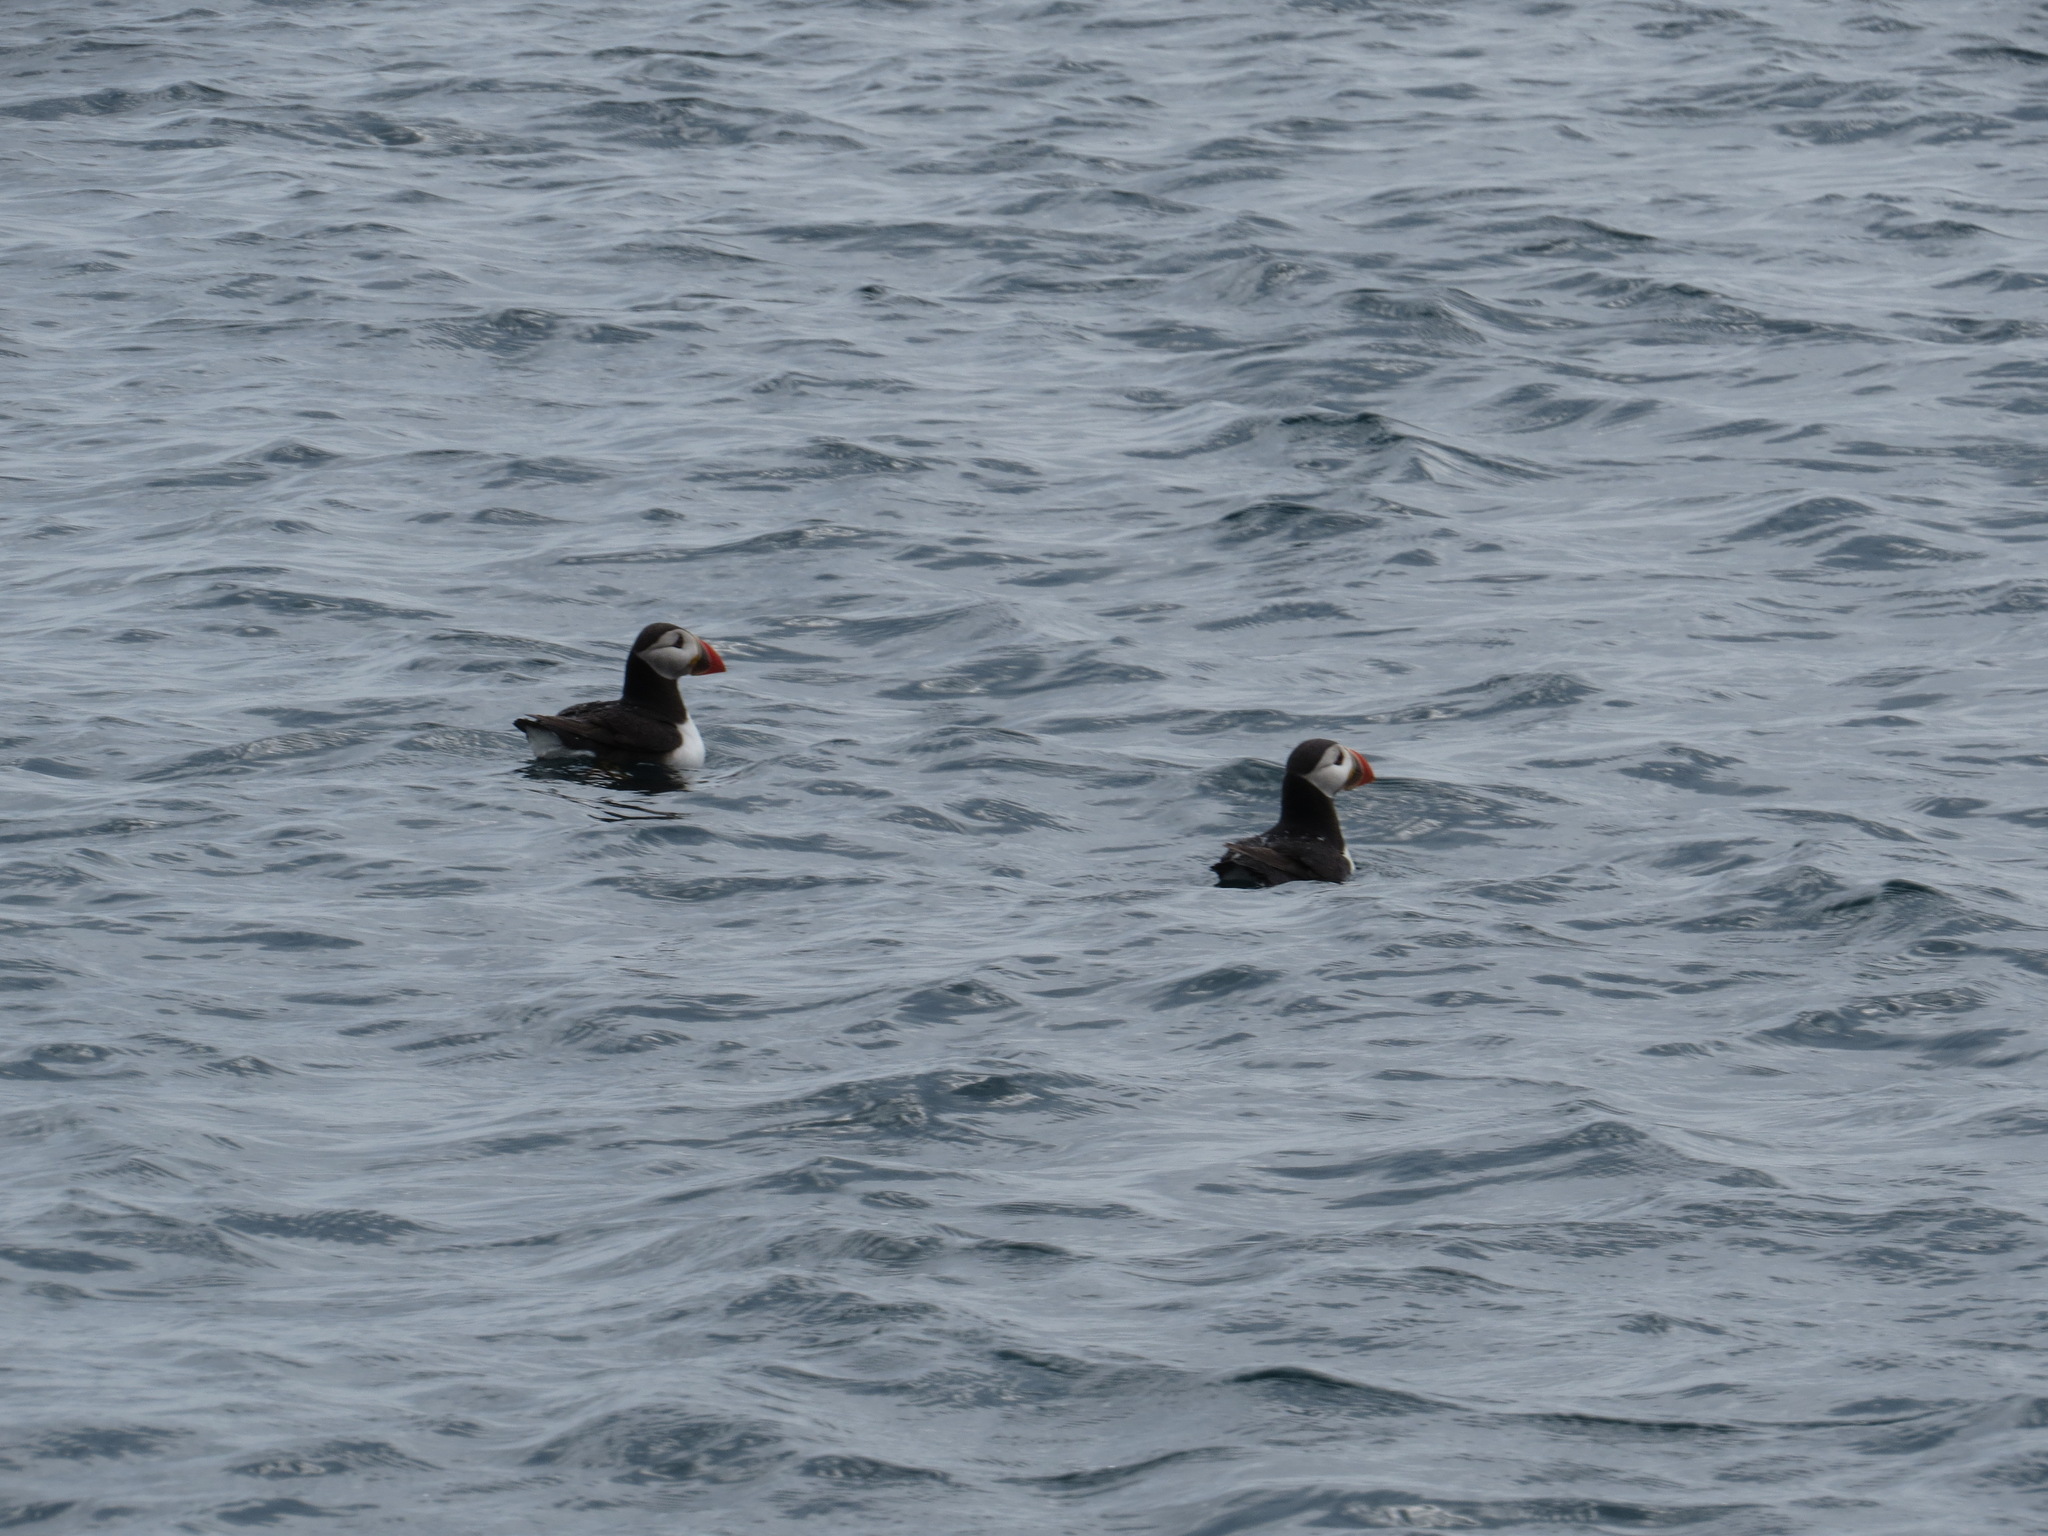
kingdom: Animalia
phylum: Chordata
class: Aves
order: Charadriiformes
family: Alcidae
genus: Fratercula
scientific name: Fratercula arctica
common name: Atlantic puffin
